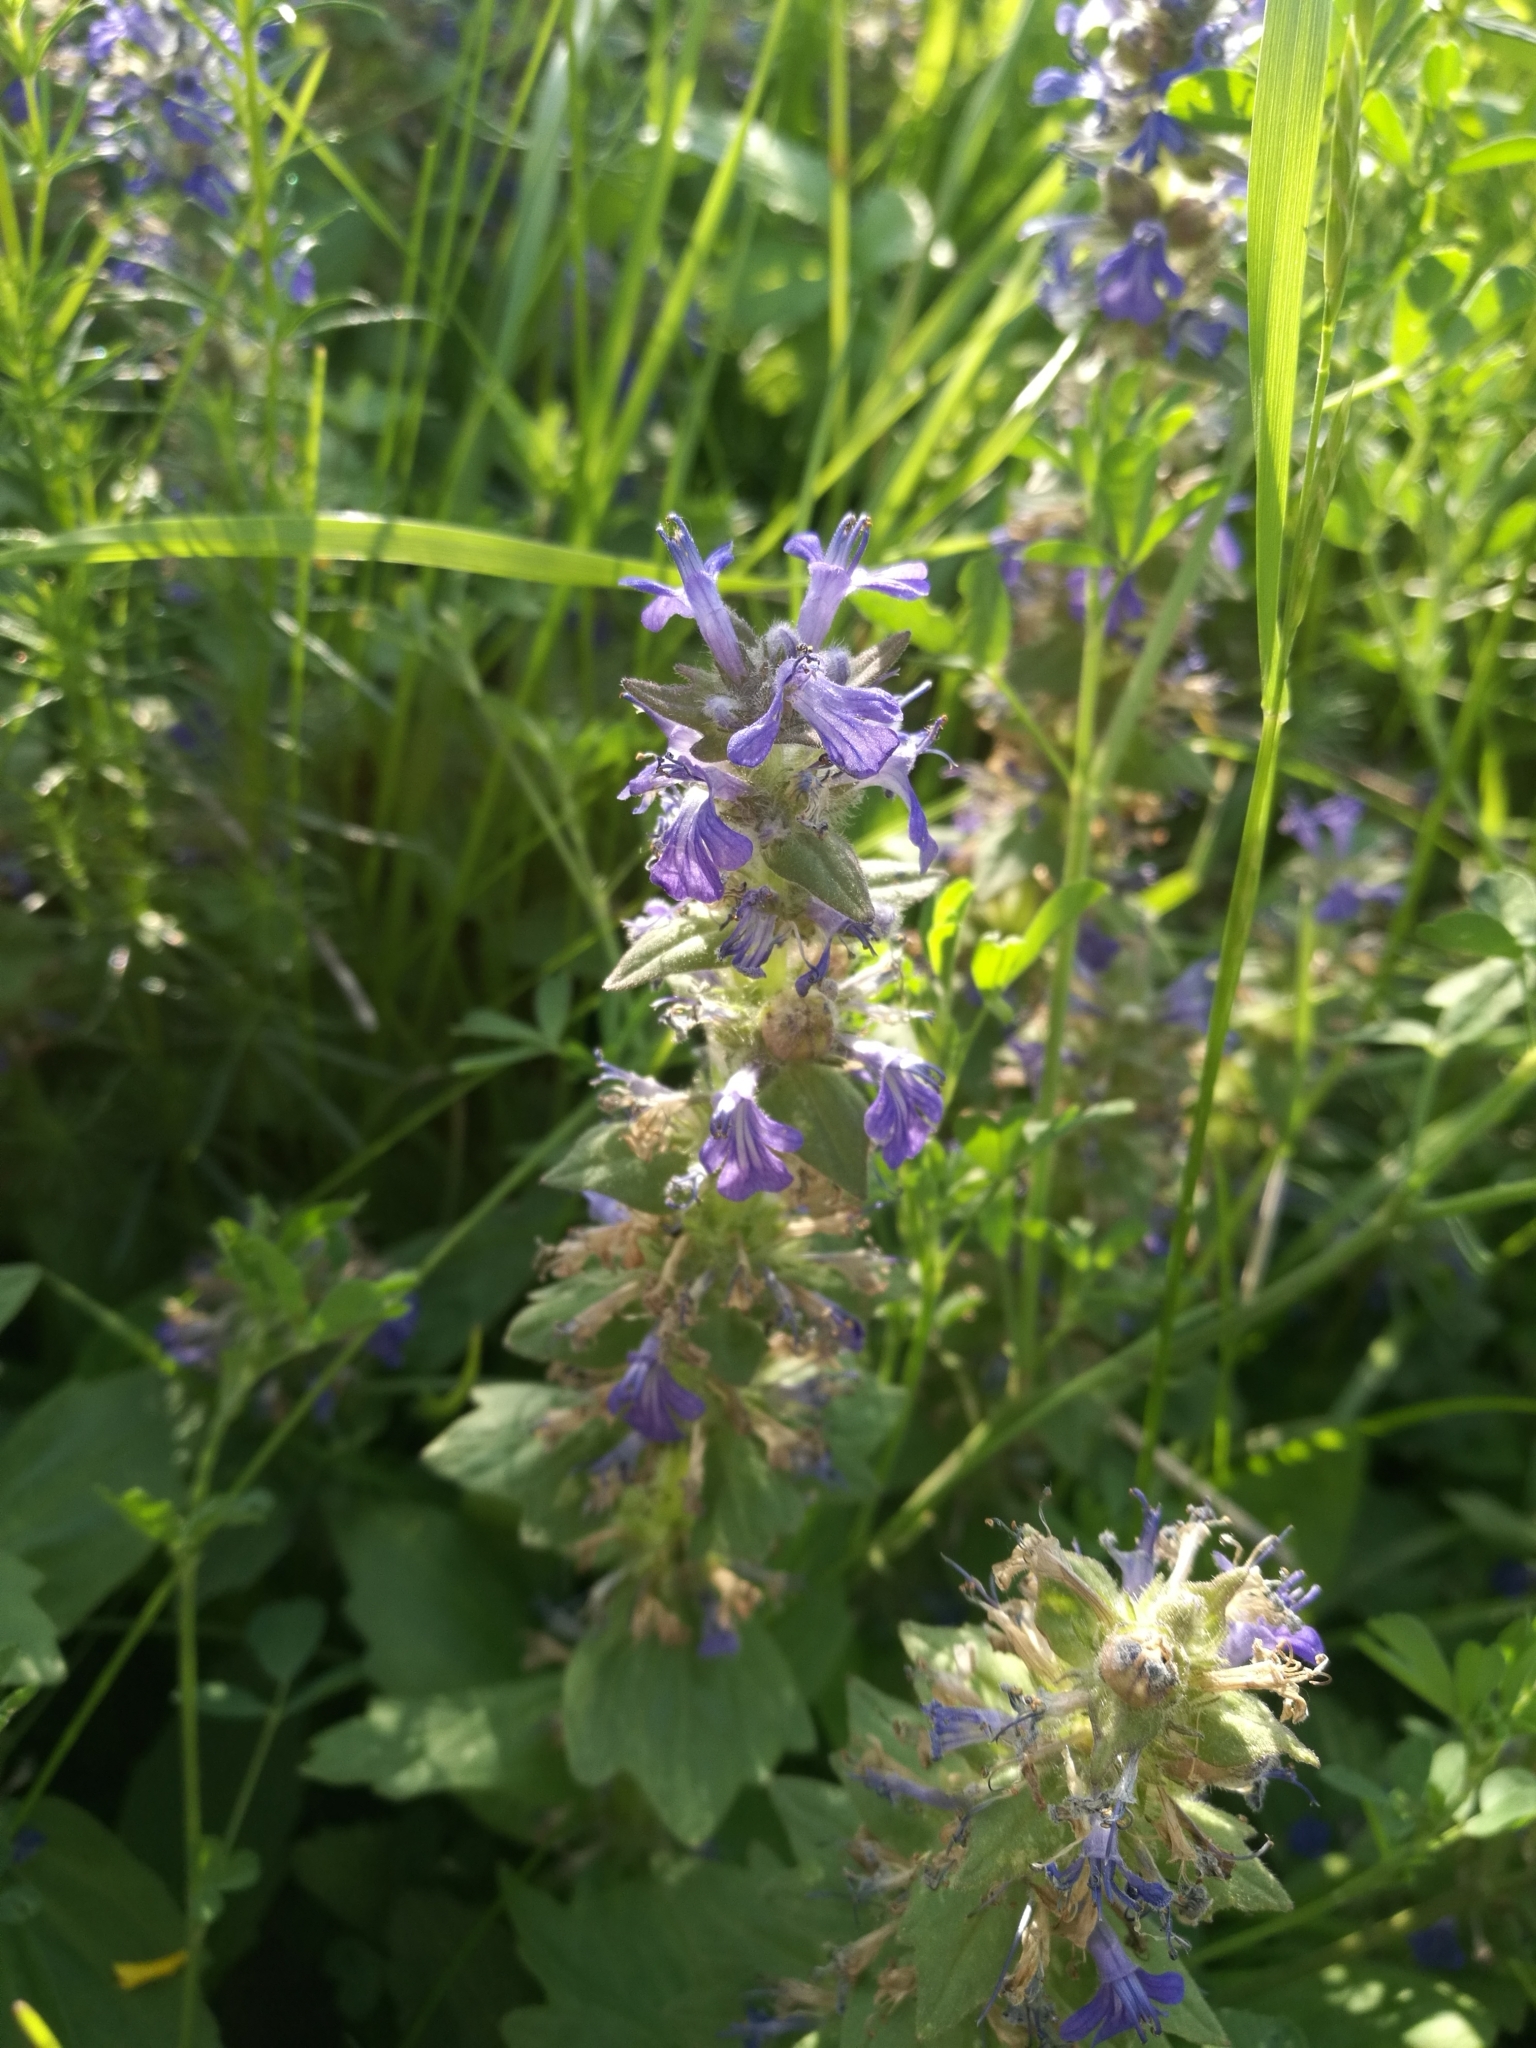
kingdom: Plantae
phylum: Tracheophyta
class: Magnoliopsida
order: Lamiales
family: Lamiaceae
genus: Ajuga
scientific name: Ajuga genevensis
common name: Blue bugle
